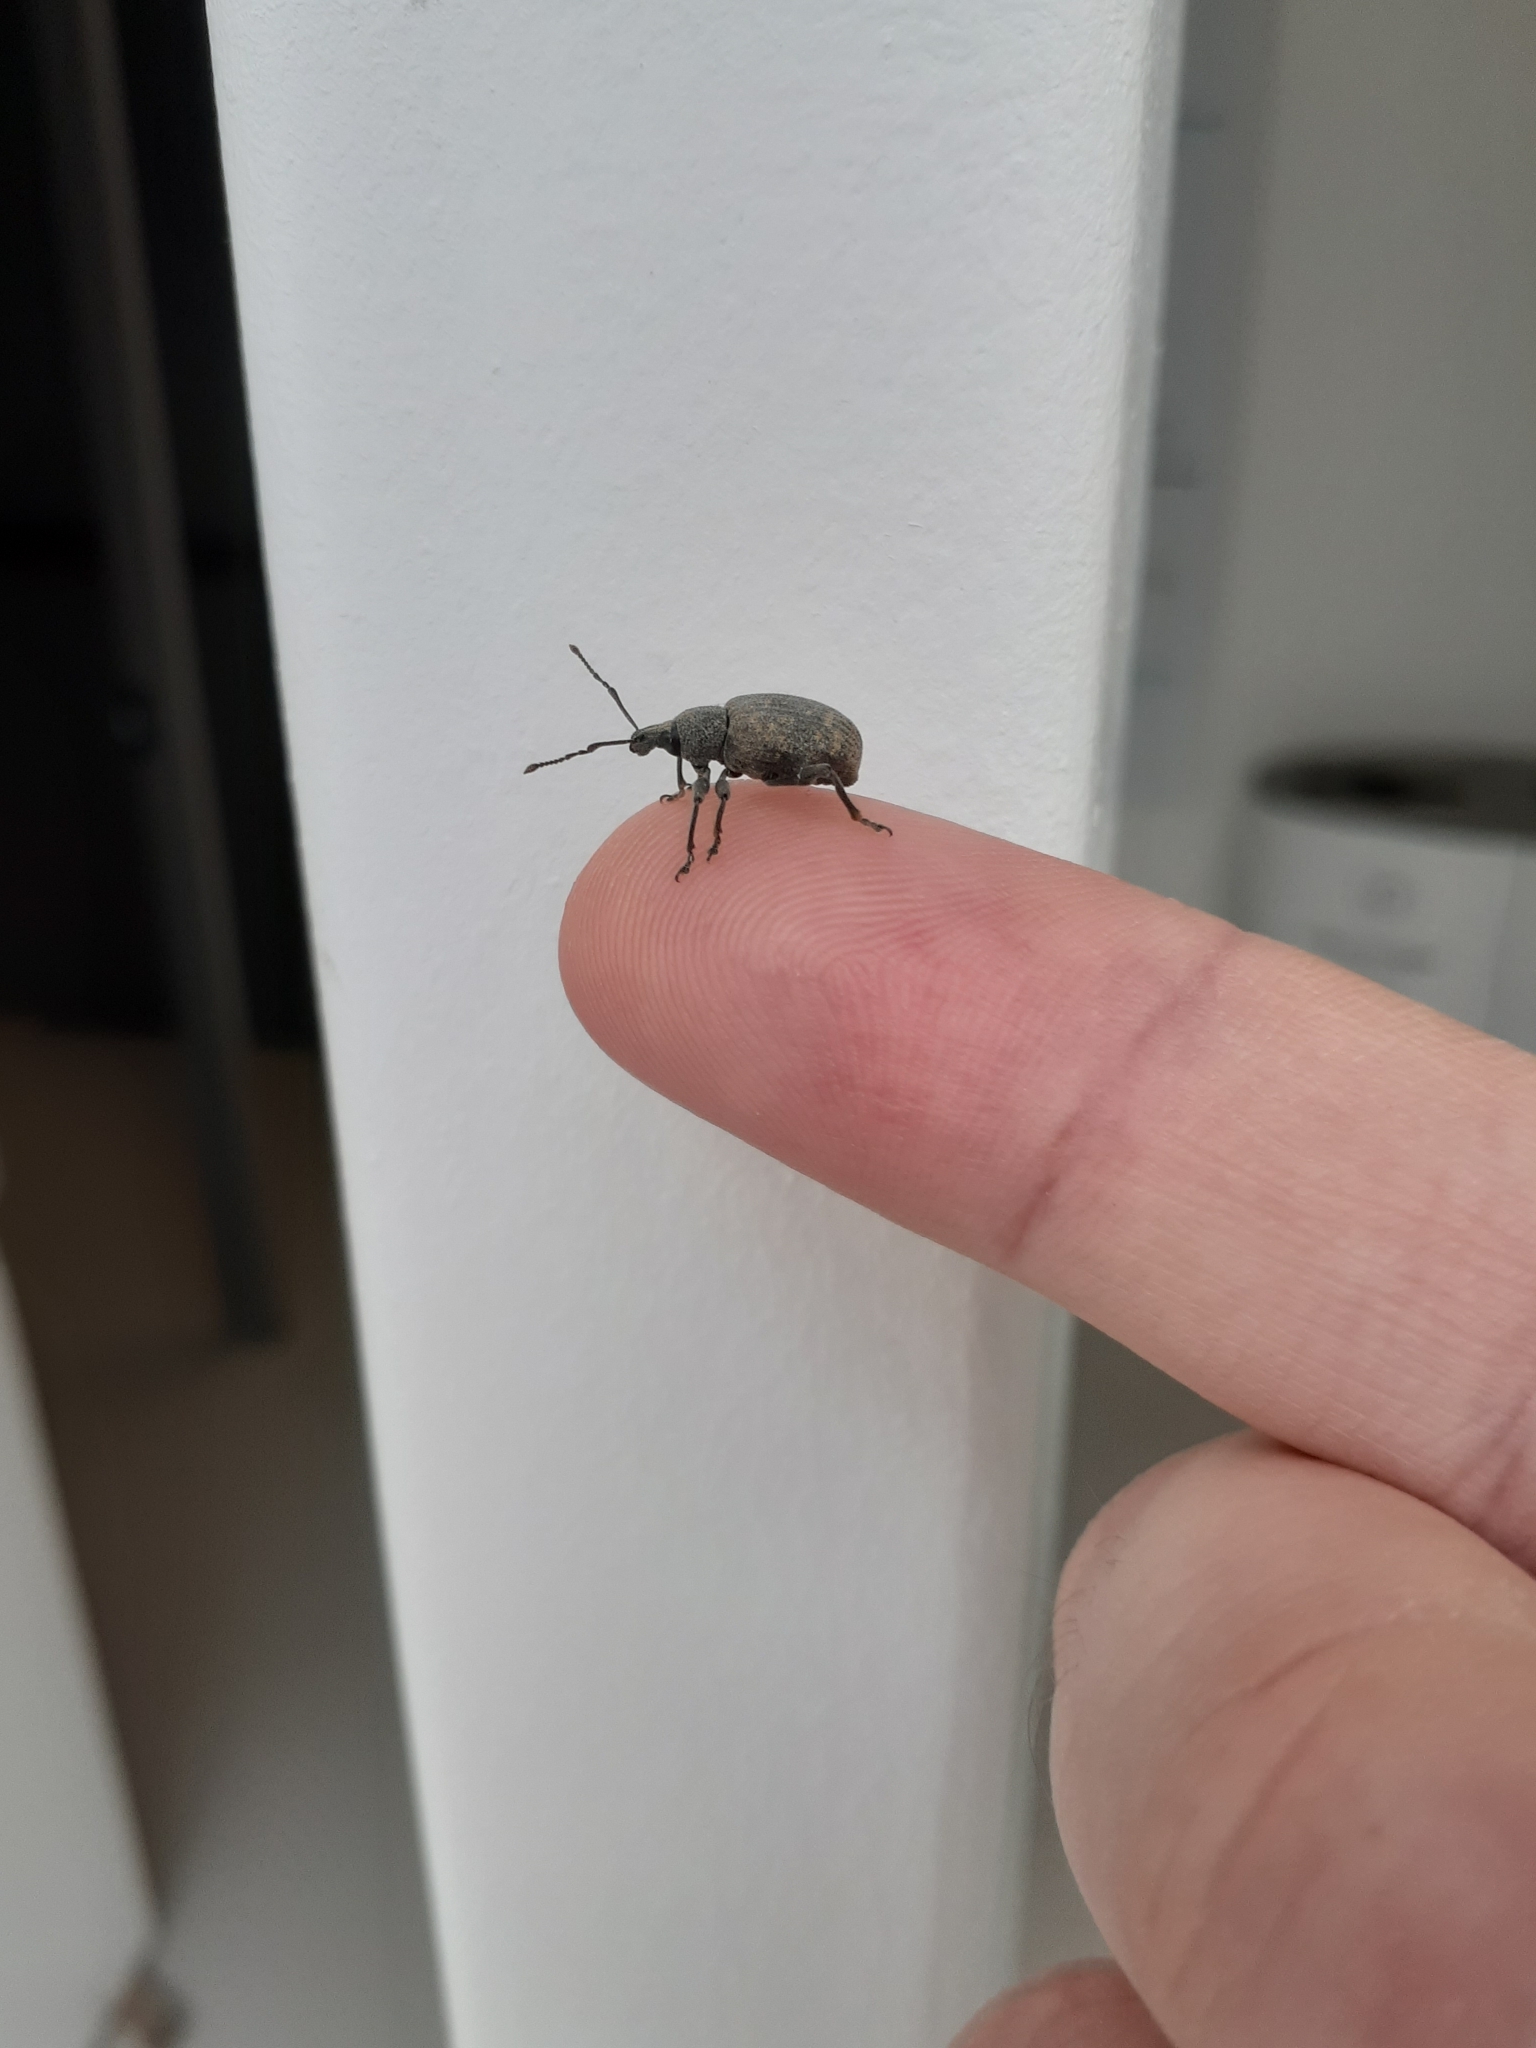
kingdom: Animalia
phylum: Arthropoda
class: Insecta
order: Coleoptera
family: Curculionidae
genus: Otiorhynchus
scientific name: Otiorhynchus sulcatus
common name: Black vine weevil
